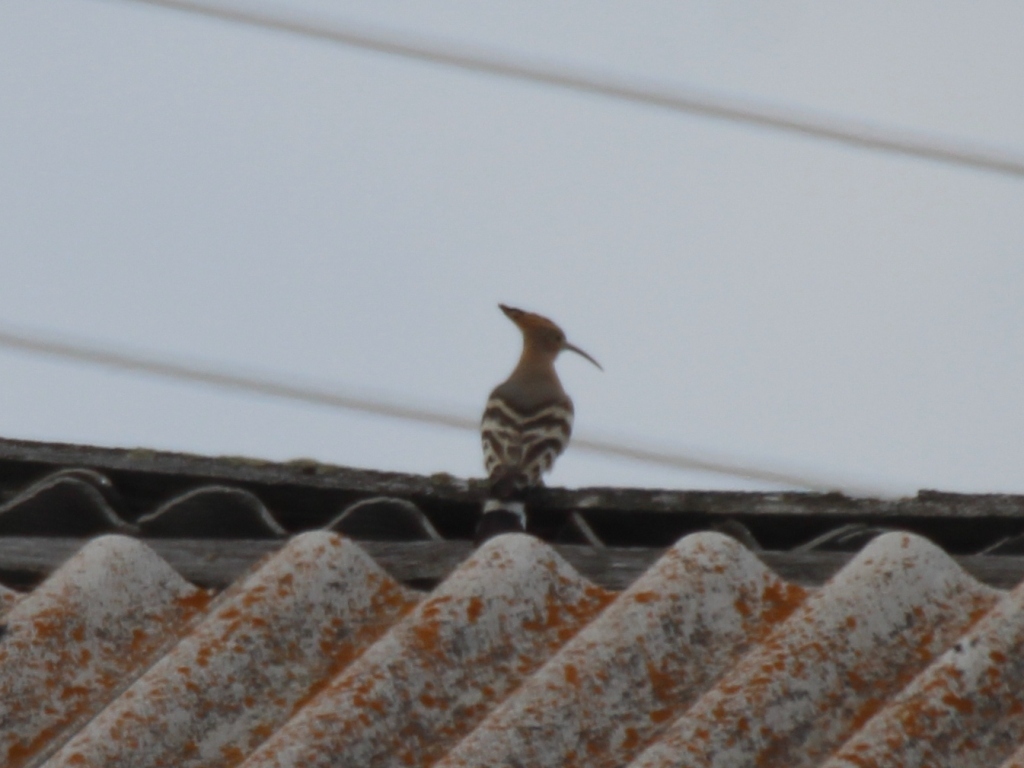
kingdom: Animalia
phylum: Chordata
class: Aves
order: Bucerotiformes
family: Upupidae
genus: Upupa
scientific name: Upupa epops
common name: Eurasian hoopoe
